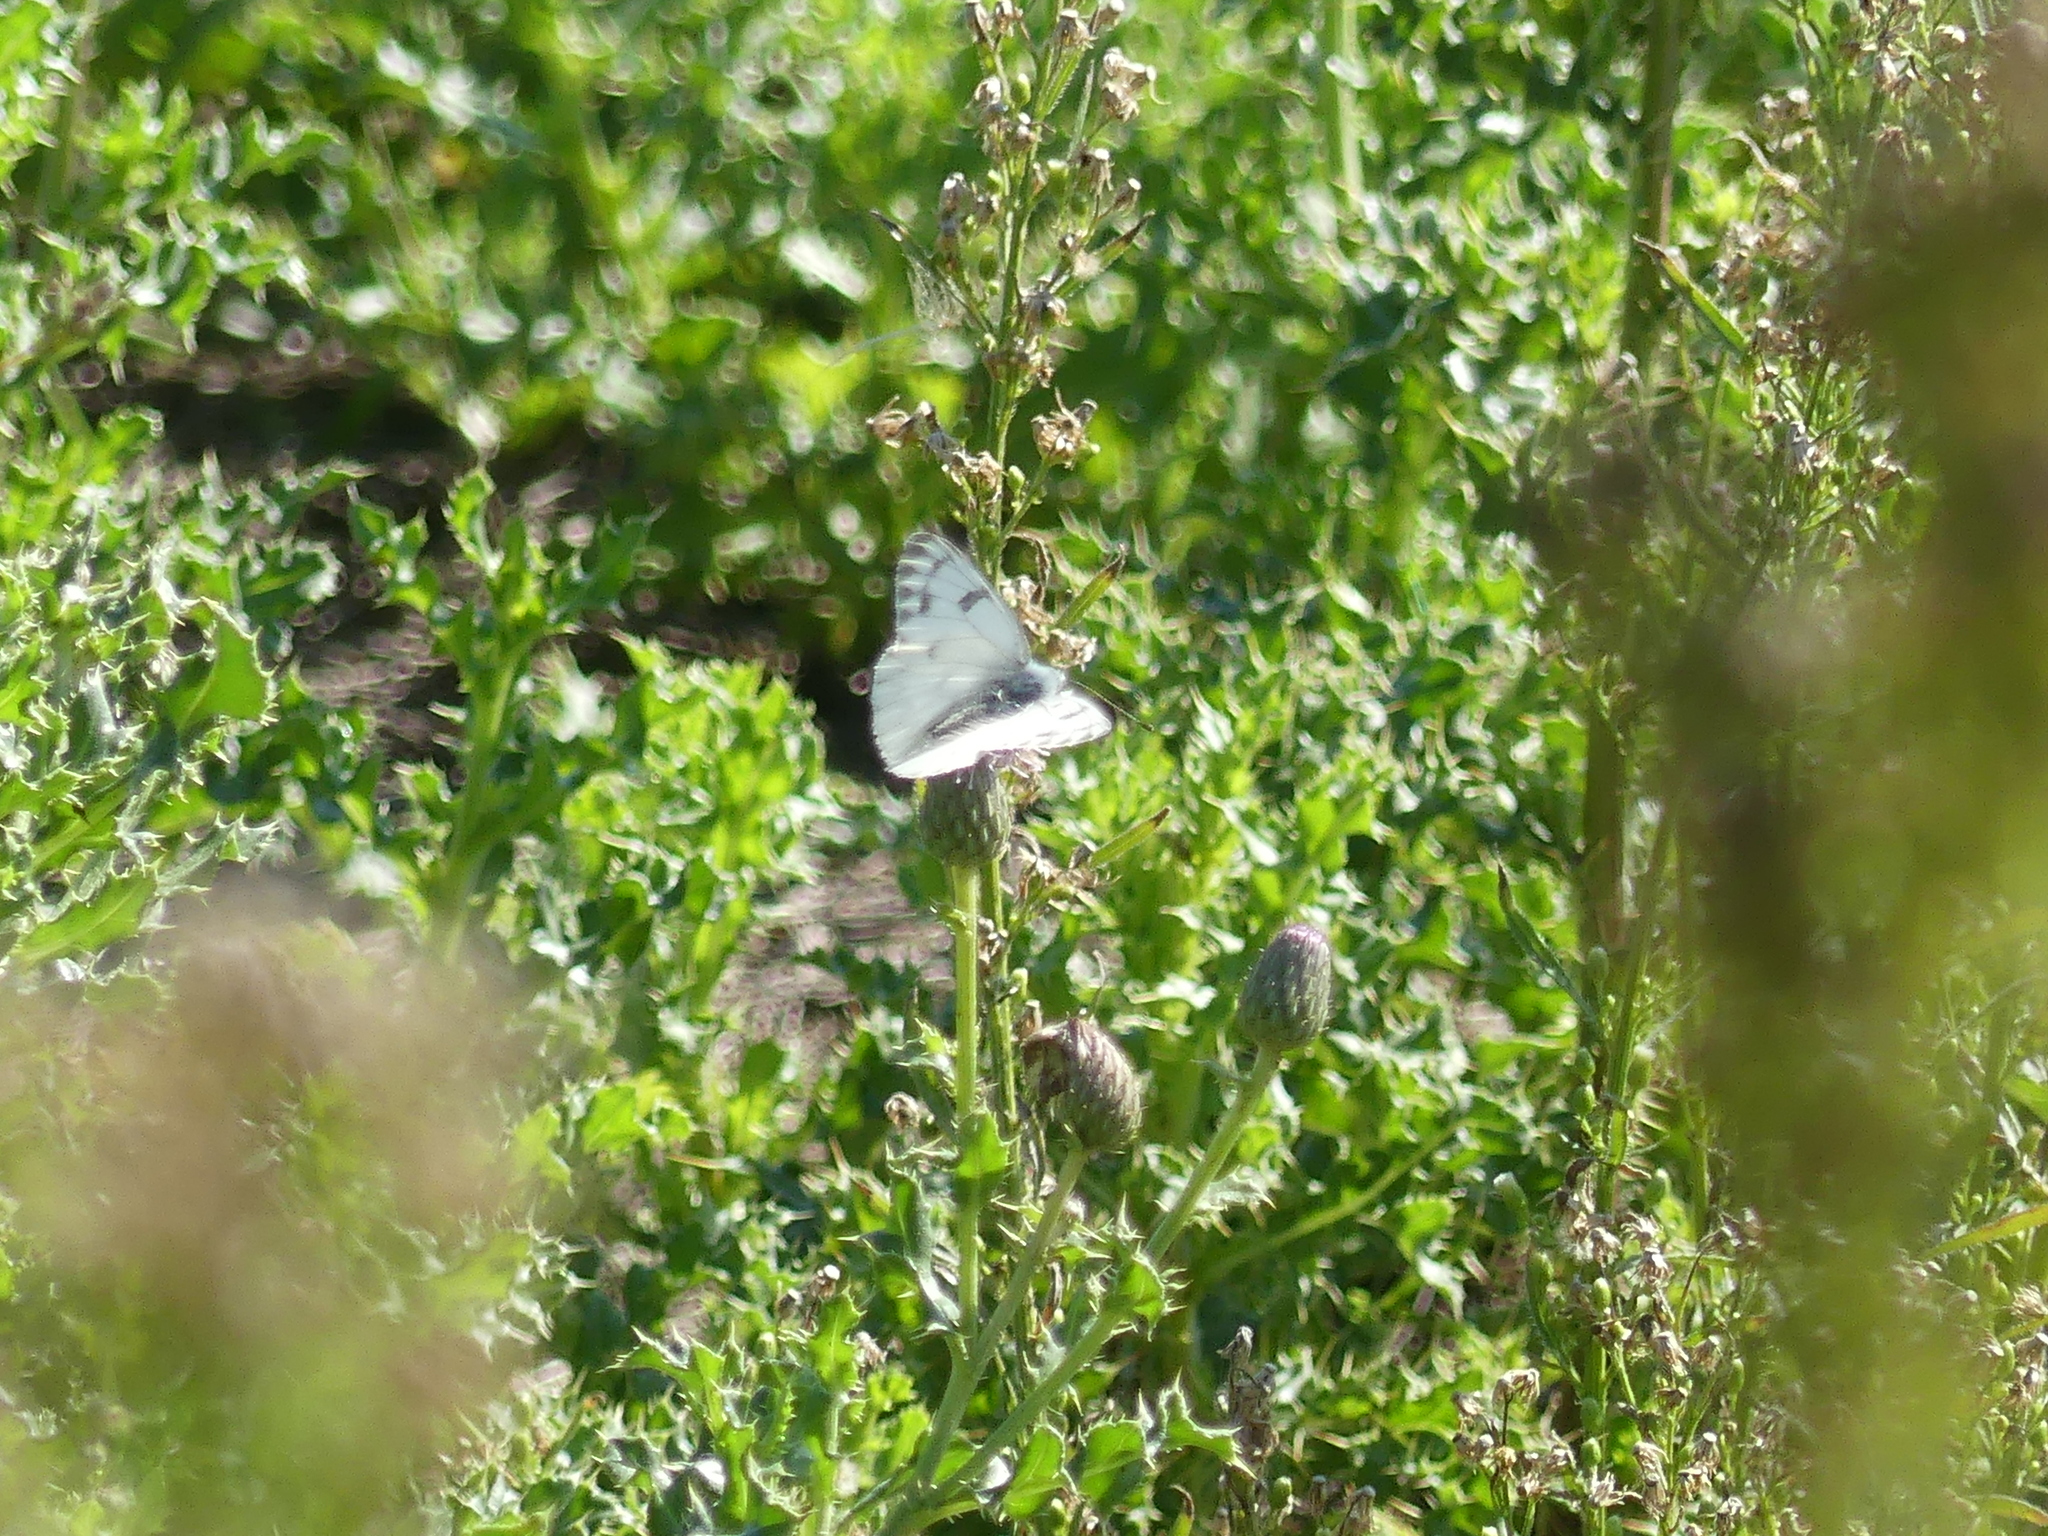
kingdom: Animalia
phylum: Arthropoda
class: Insecta
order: Lepidoptera
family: Pieridae
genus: Pontia
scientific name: Pontia occidentalis
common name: Western white
